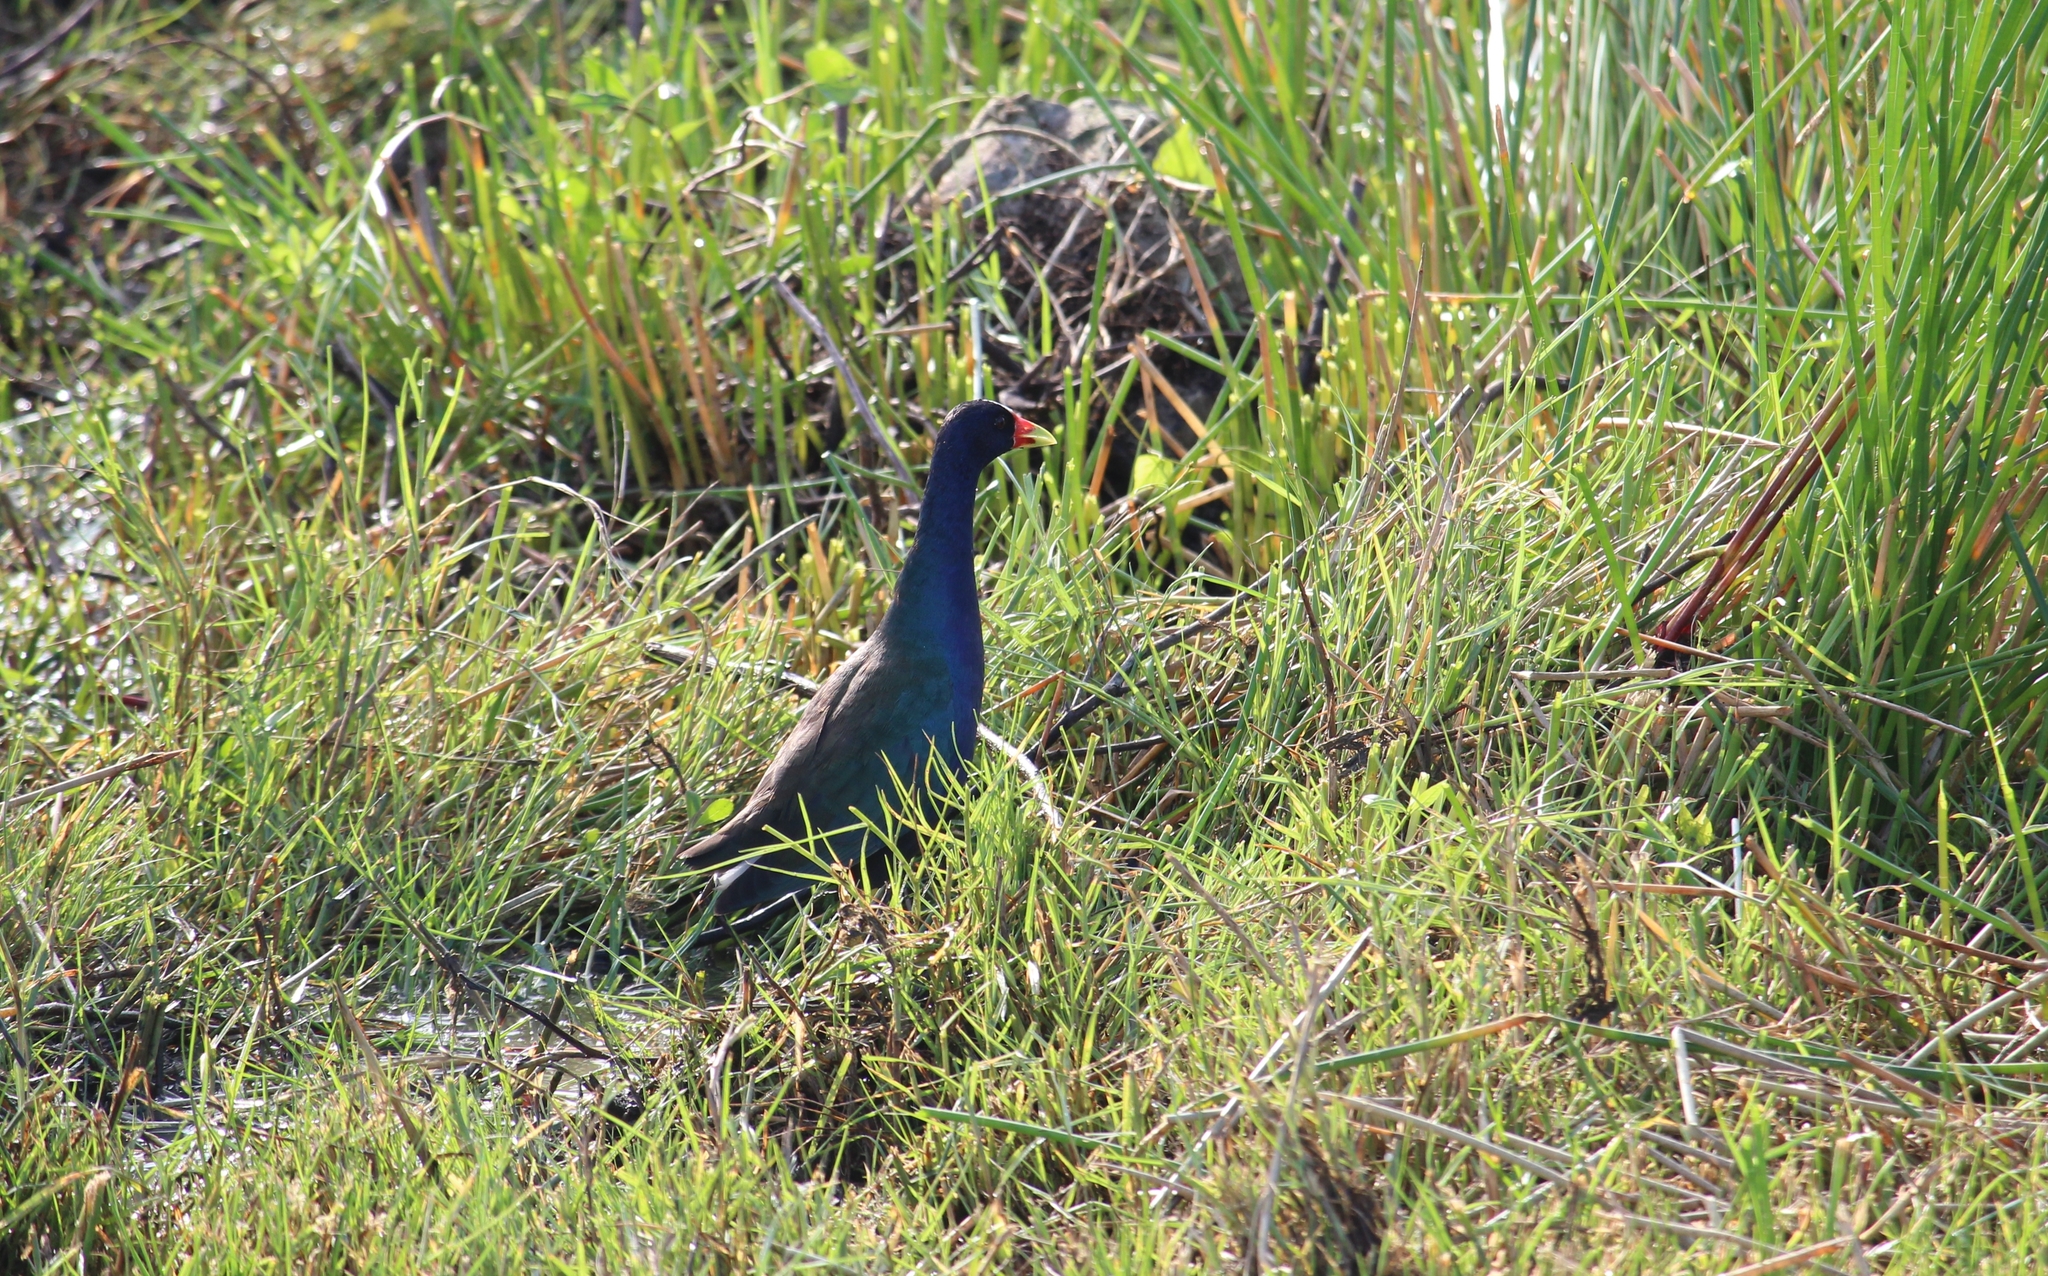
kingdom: Animalia
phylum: Chordata
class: Aves
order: Gruiformes
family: Rallidae
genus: Porphyrio
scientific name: Porphyrio martinica
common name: Purple gallinule
